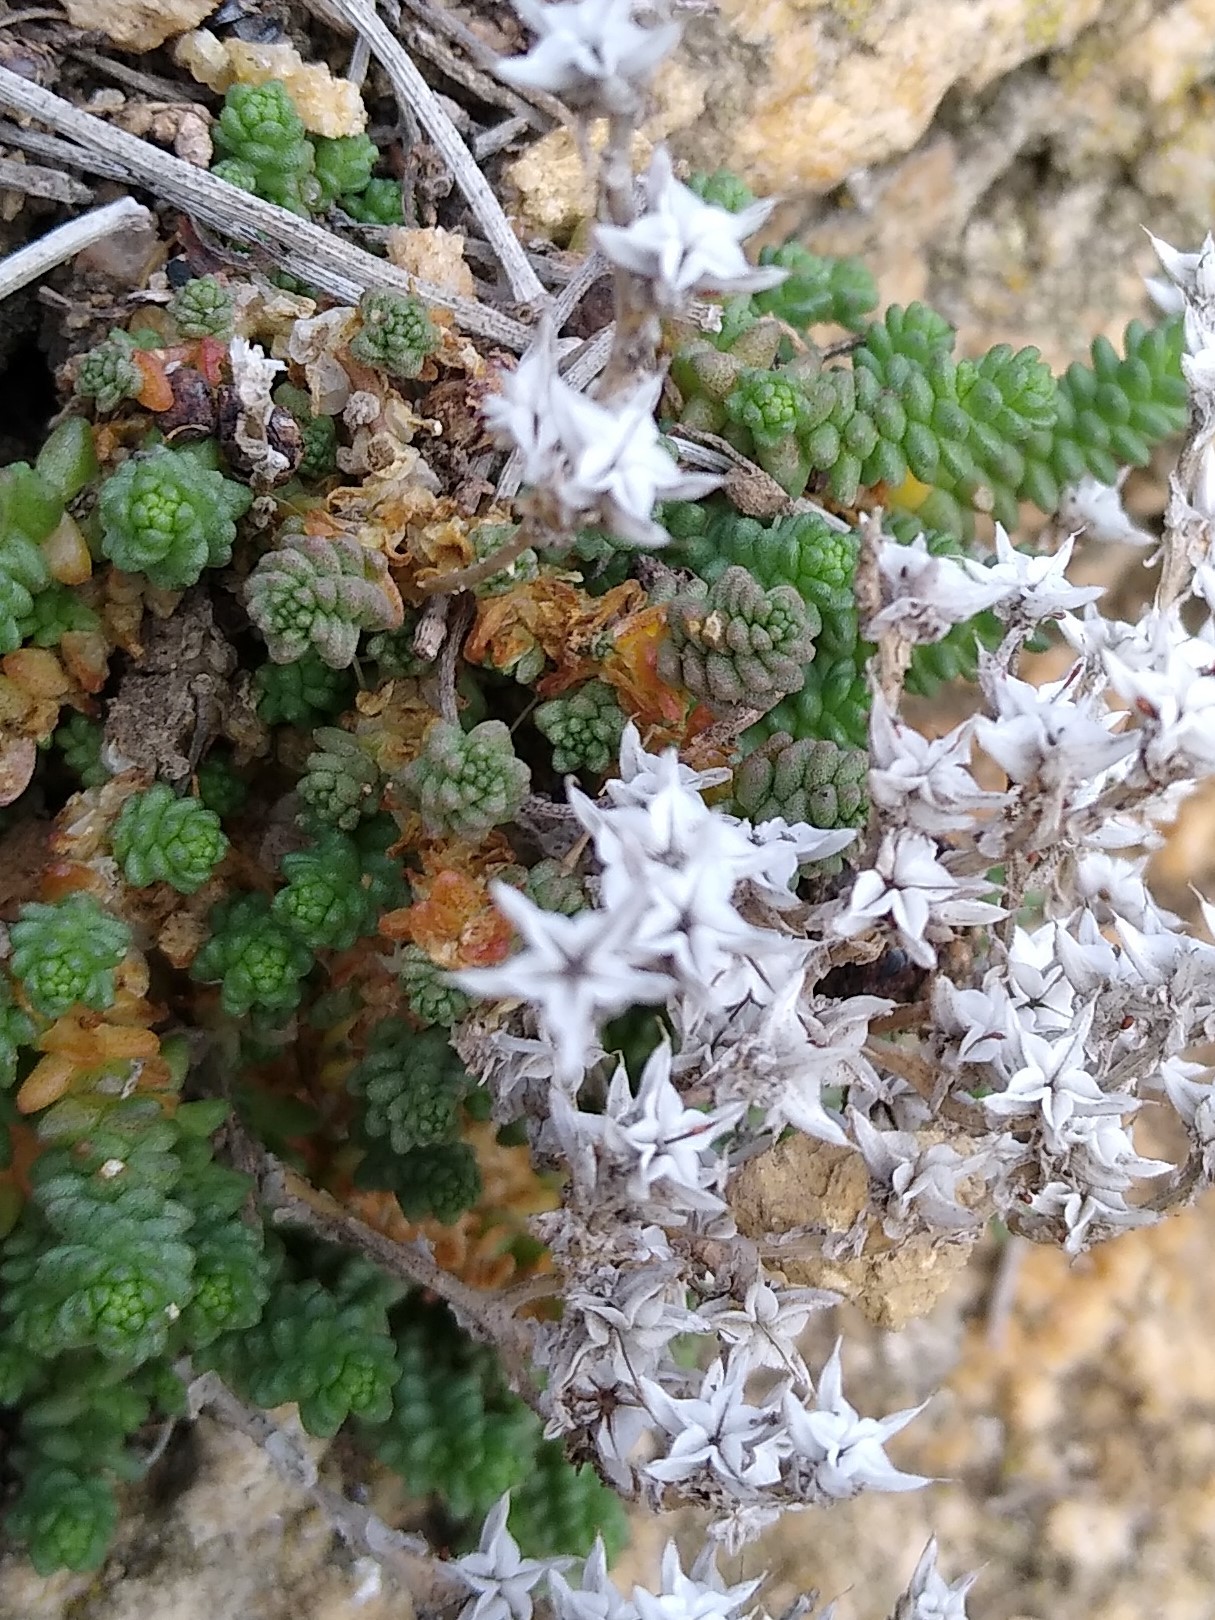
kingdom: Plantae
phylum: Tracheophyta
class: Magnoliopsida
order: Saxifragales
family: Crassulaceae
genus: Sedum
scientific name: Sedum acre
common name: Biting stonecrop
